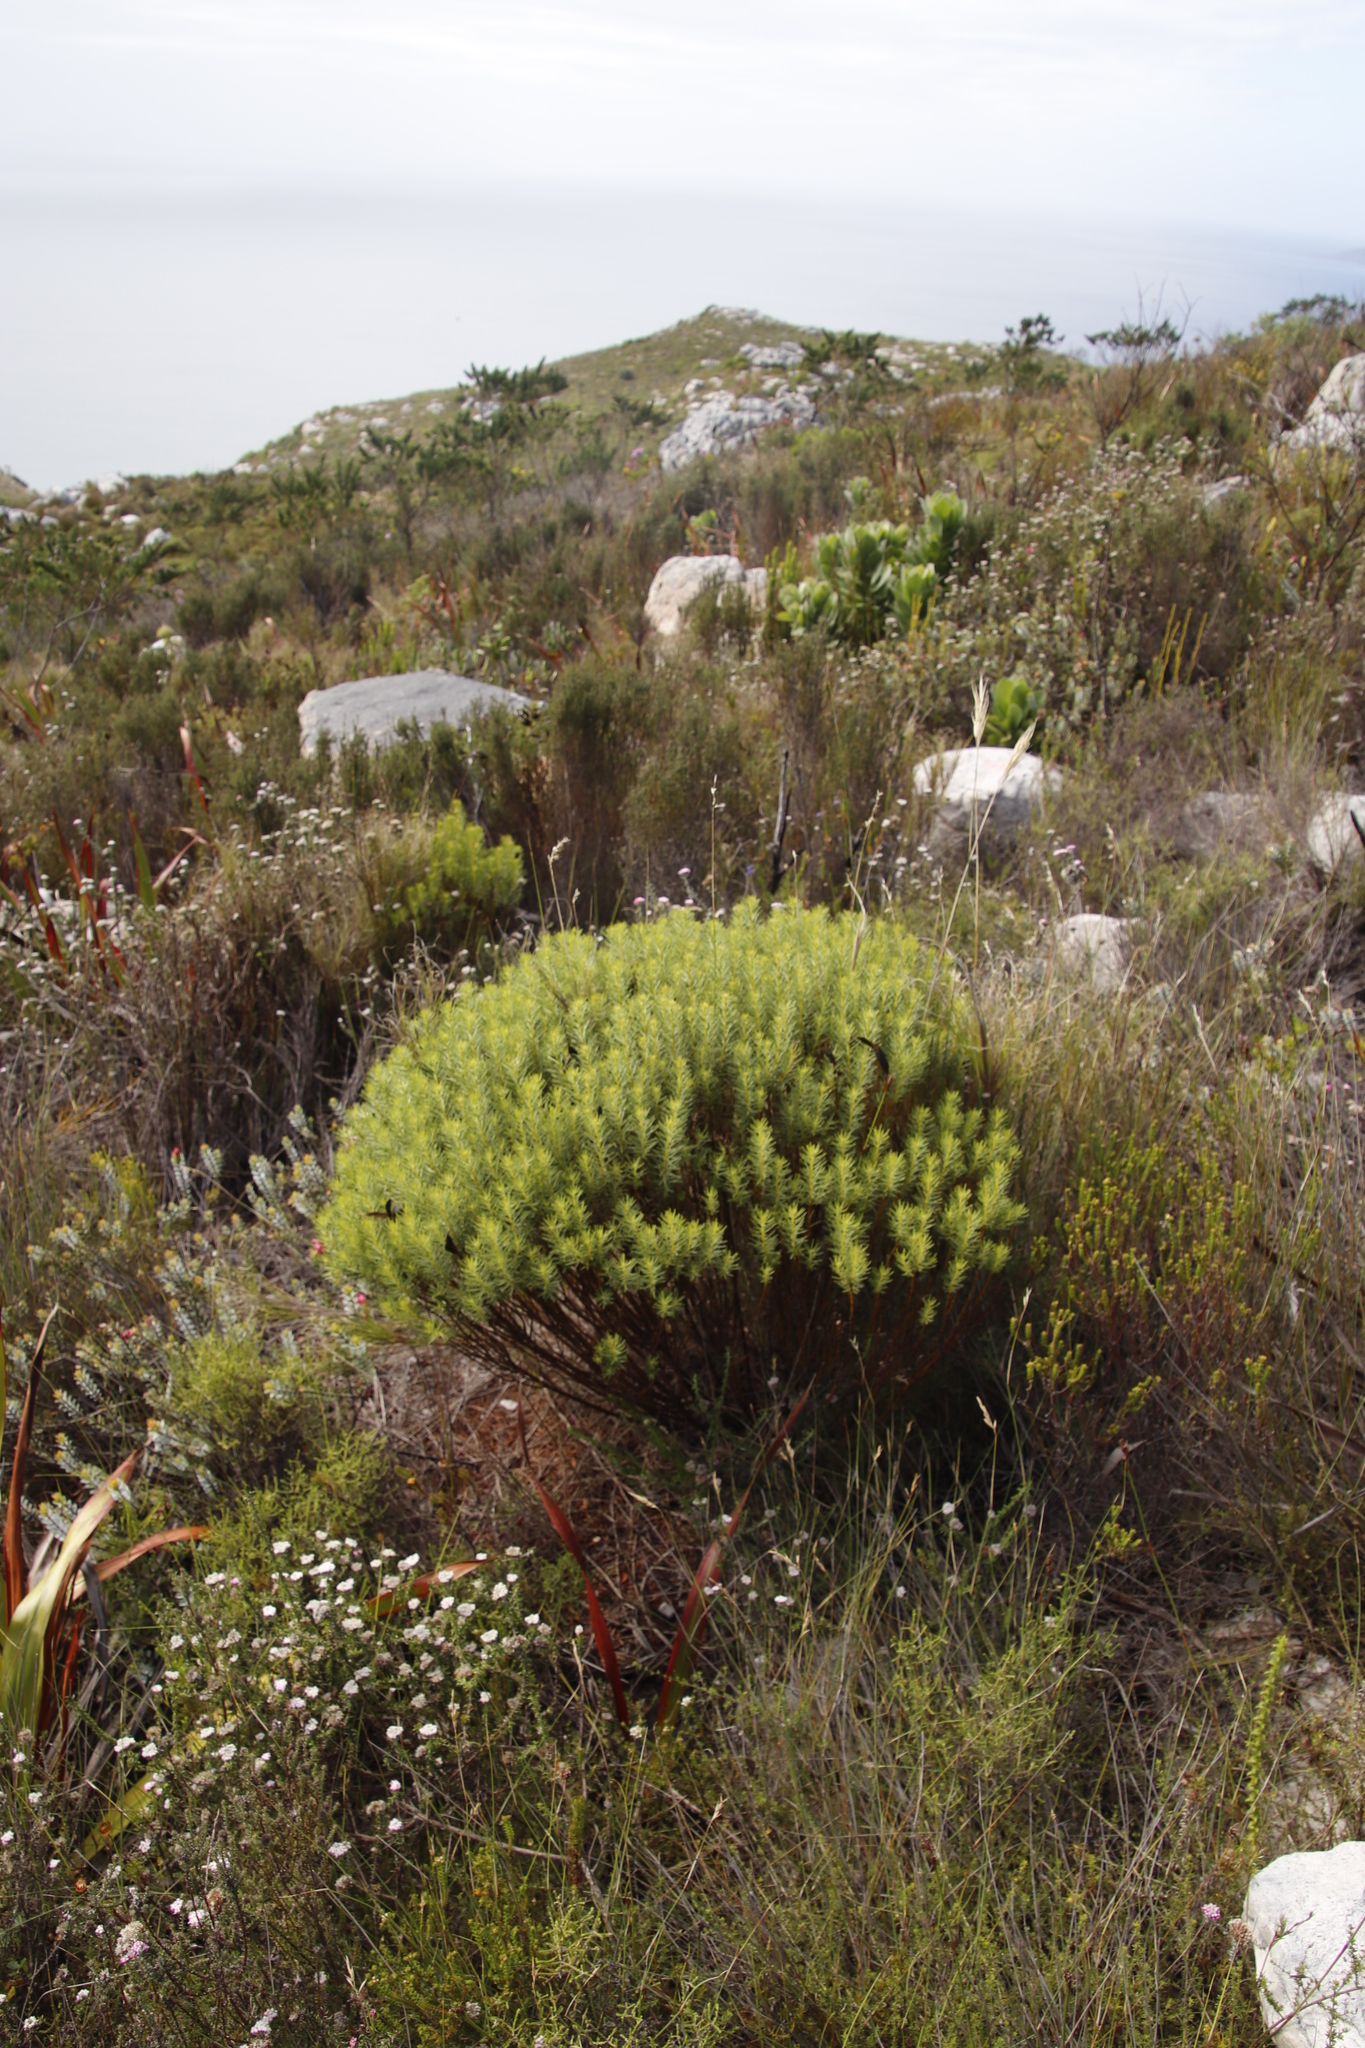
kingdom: Plantae
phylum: Tracheophyta
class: Magnoliopsida
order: Fabales
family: Fabaceae
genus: Cyclopia
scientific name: Cyclopia genistoides
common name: Honeybush tea
